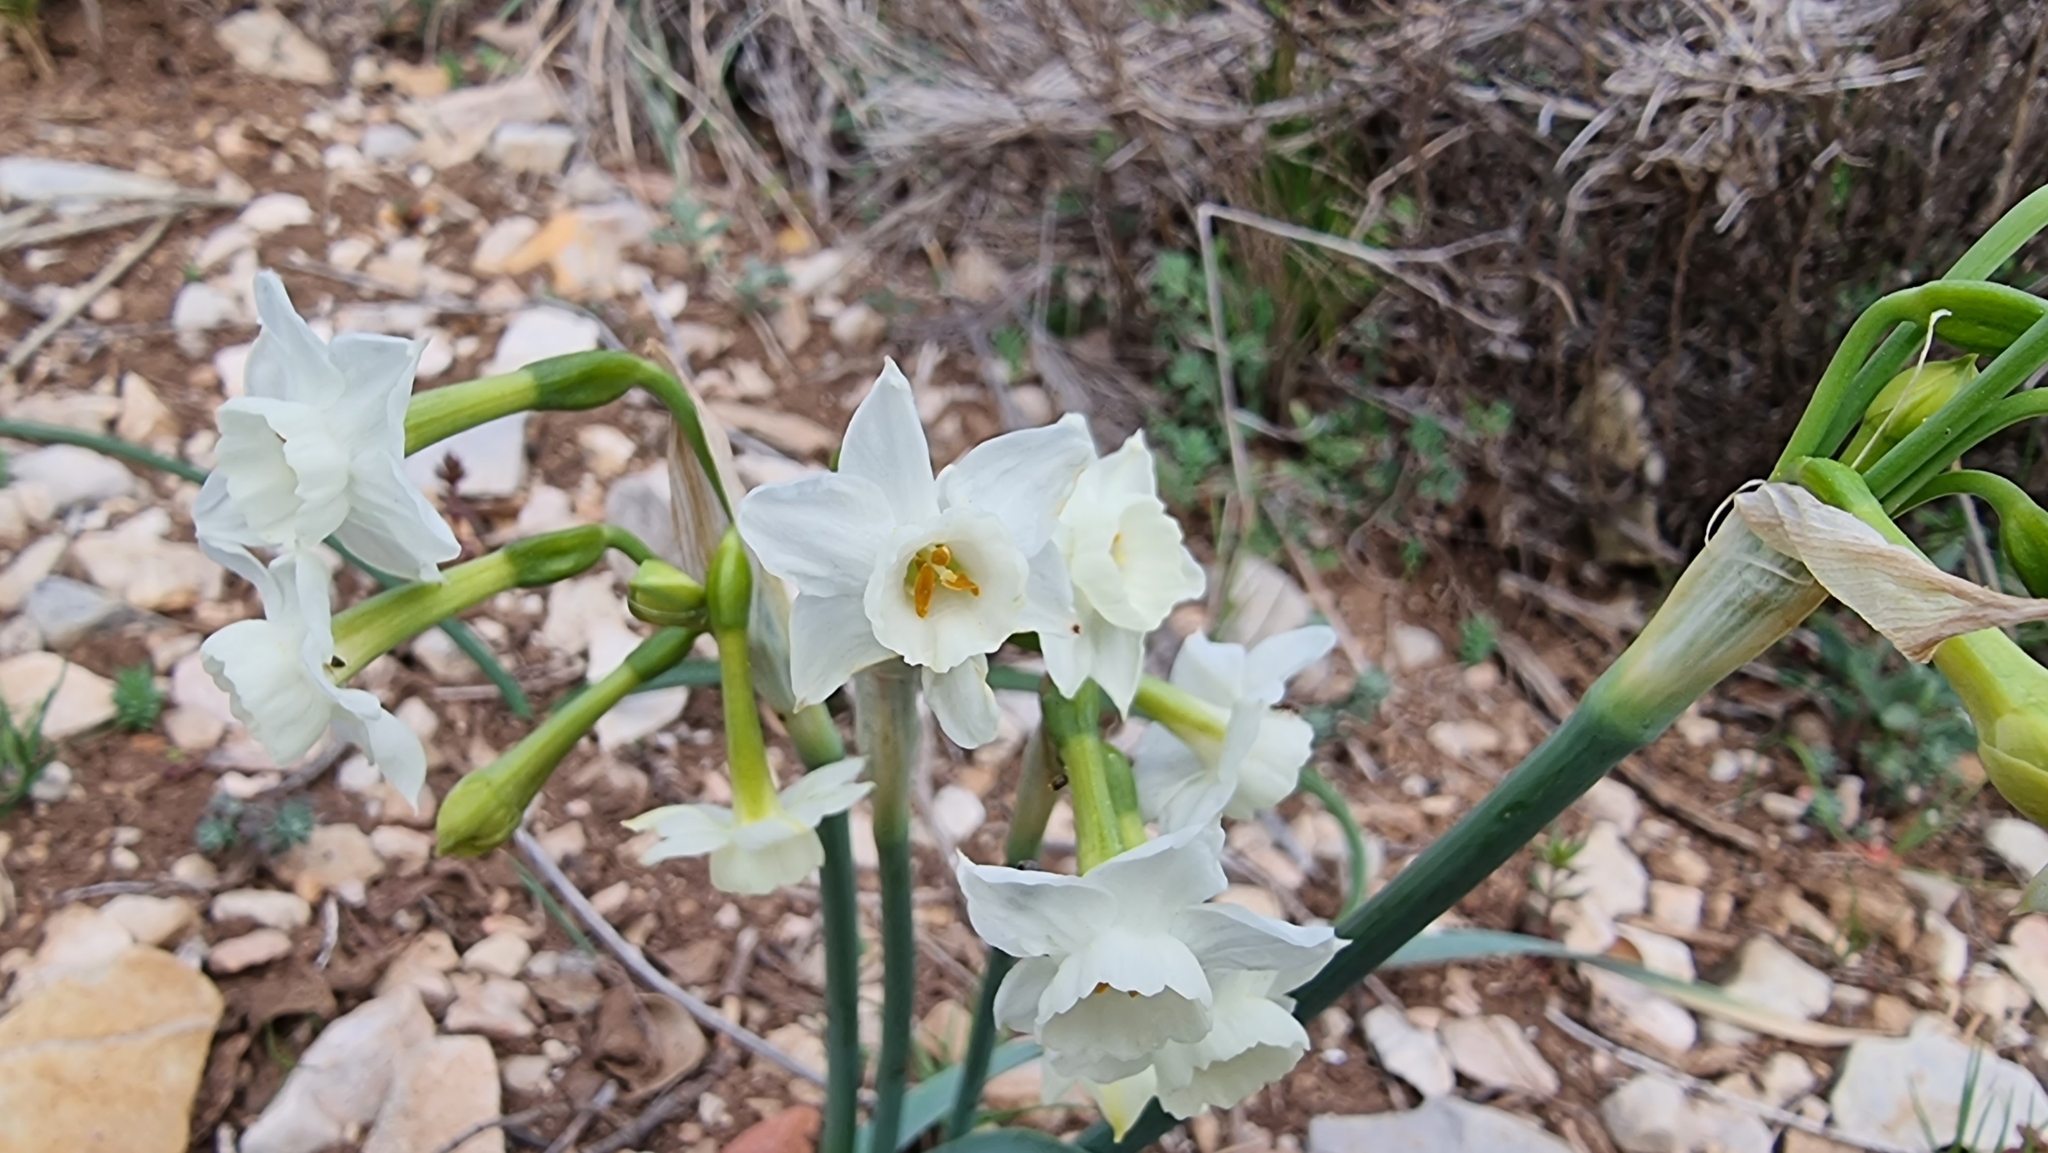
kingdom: Plantae
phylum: Tracheophyta
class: Liliopsida
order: Asparagales
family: Amaryllidaceae
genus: Narcissus
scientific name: Narcissus dubius
